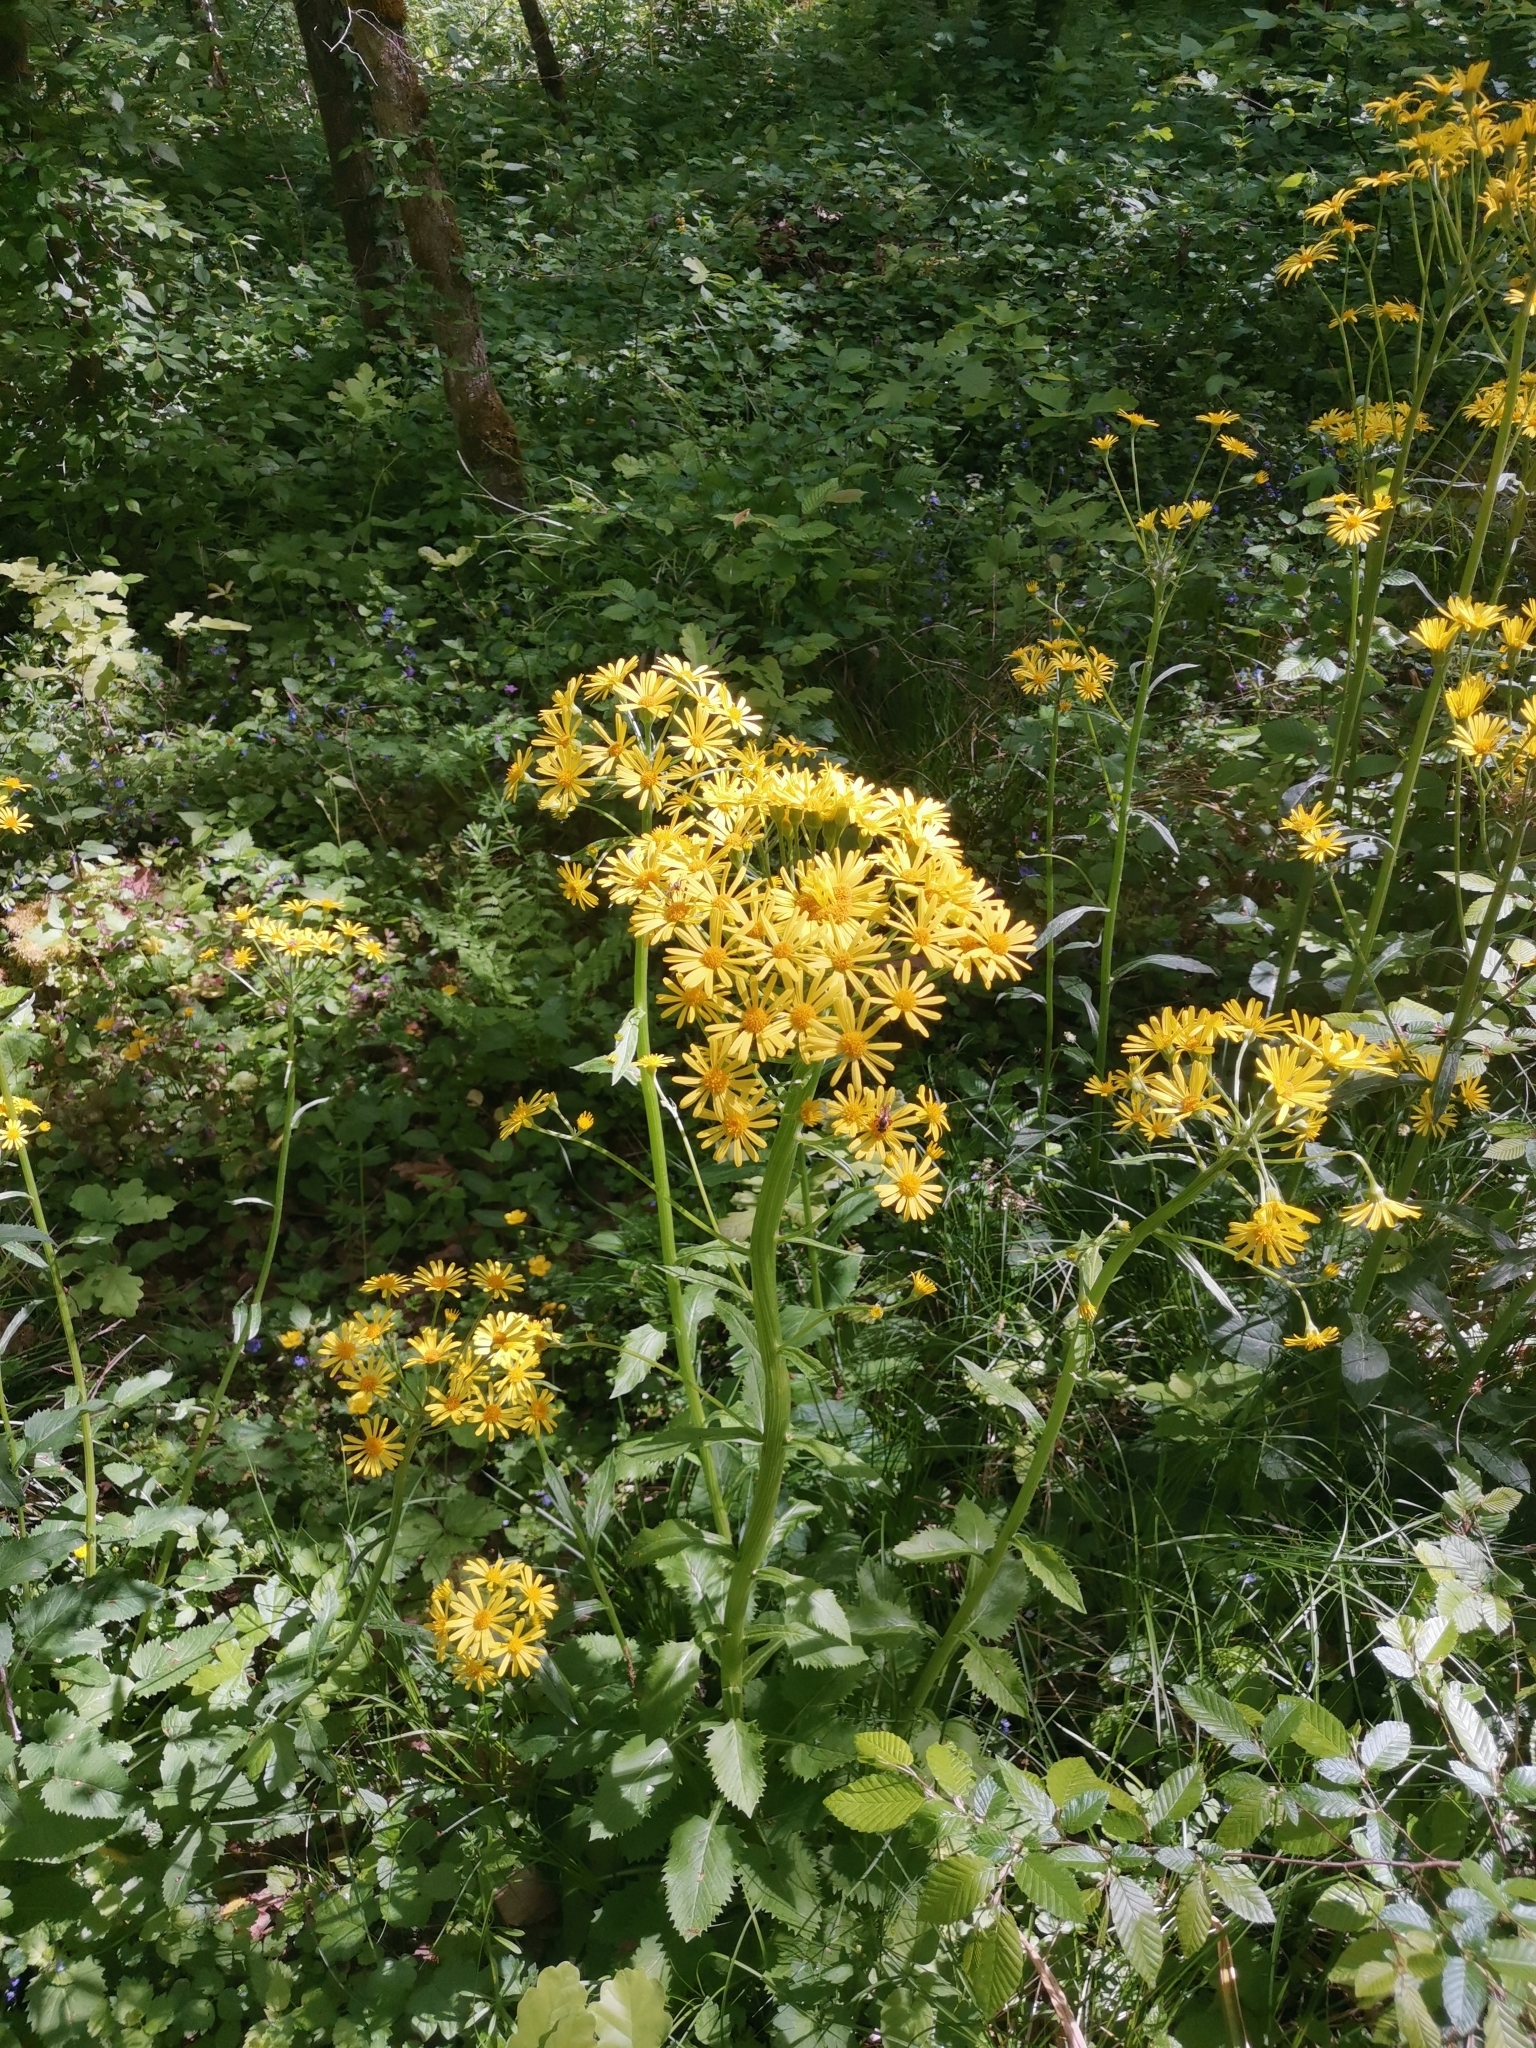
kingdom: Plantae
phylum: Tracheophyta
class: Magnoliopsida
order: Asterales
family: Asteraceae
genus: Tephroseris
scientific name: Tephroseris crispa
